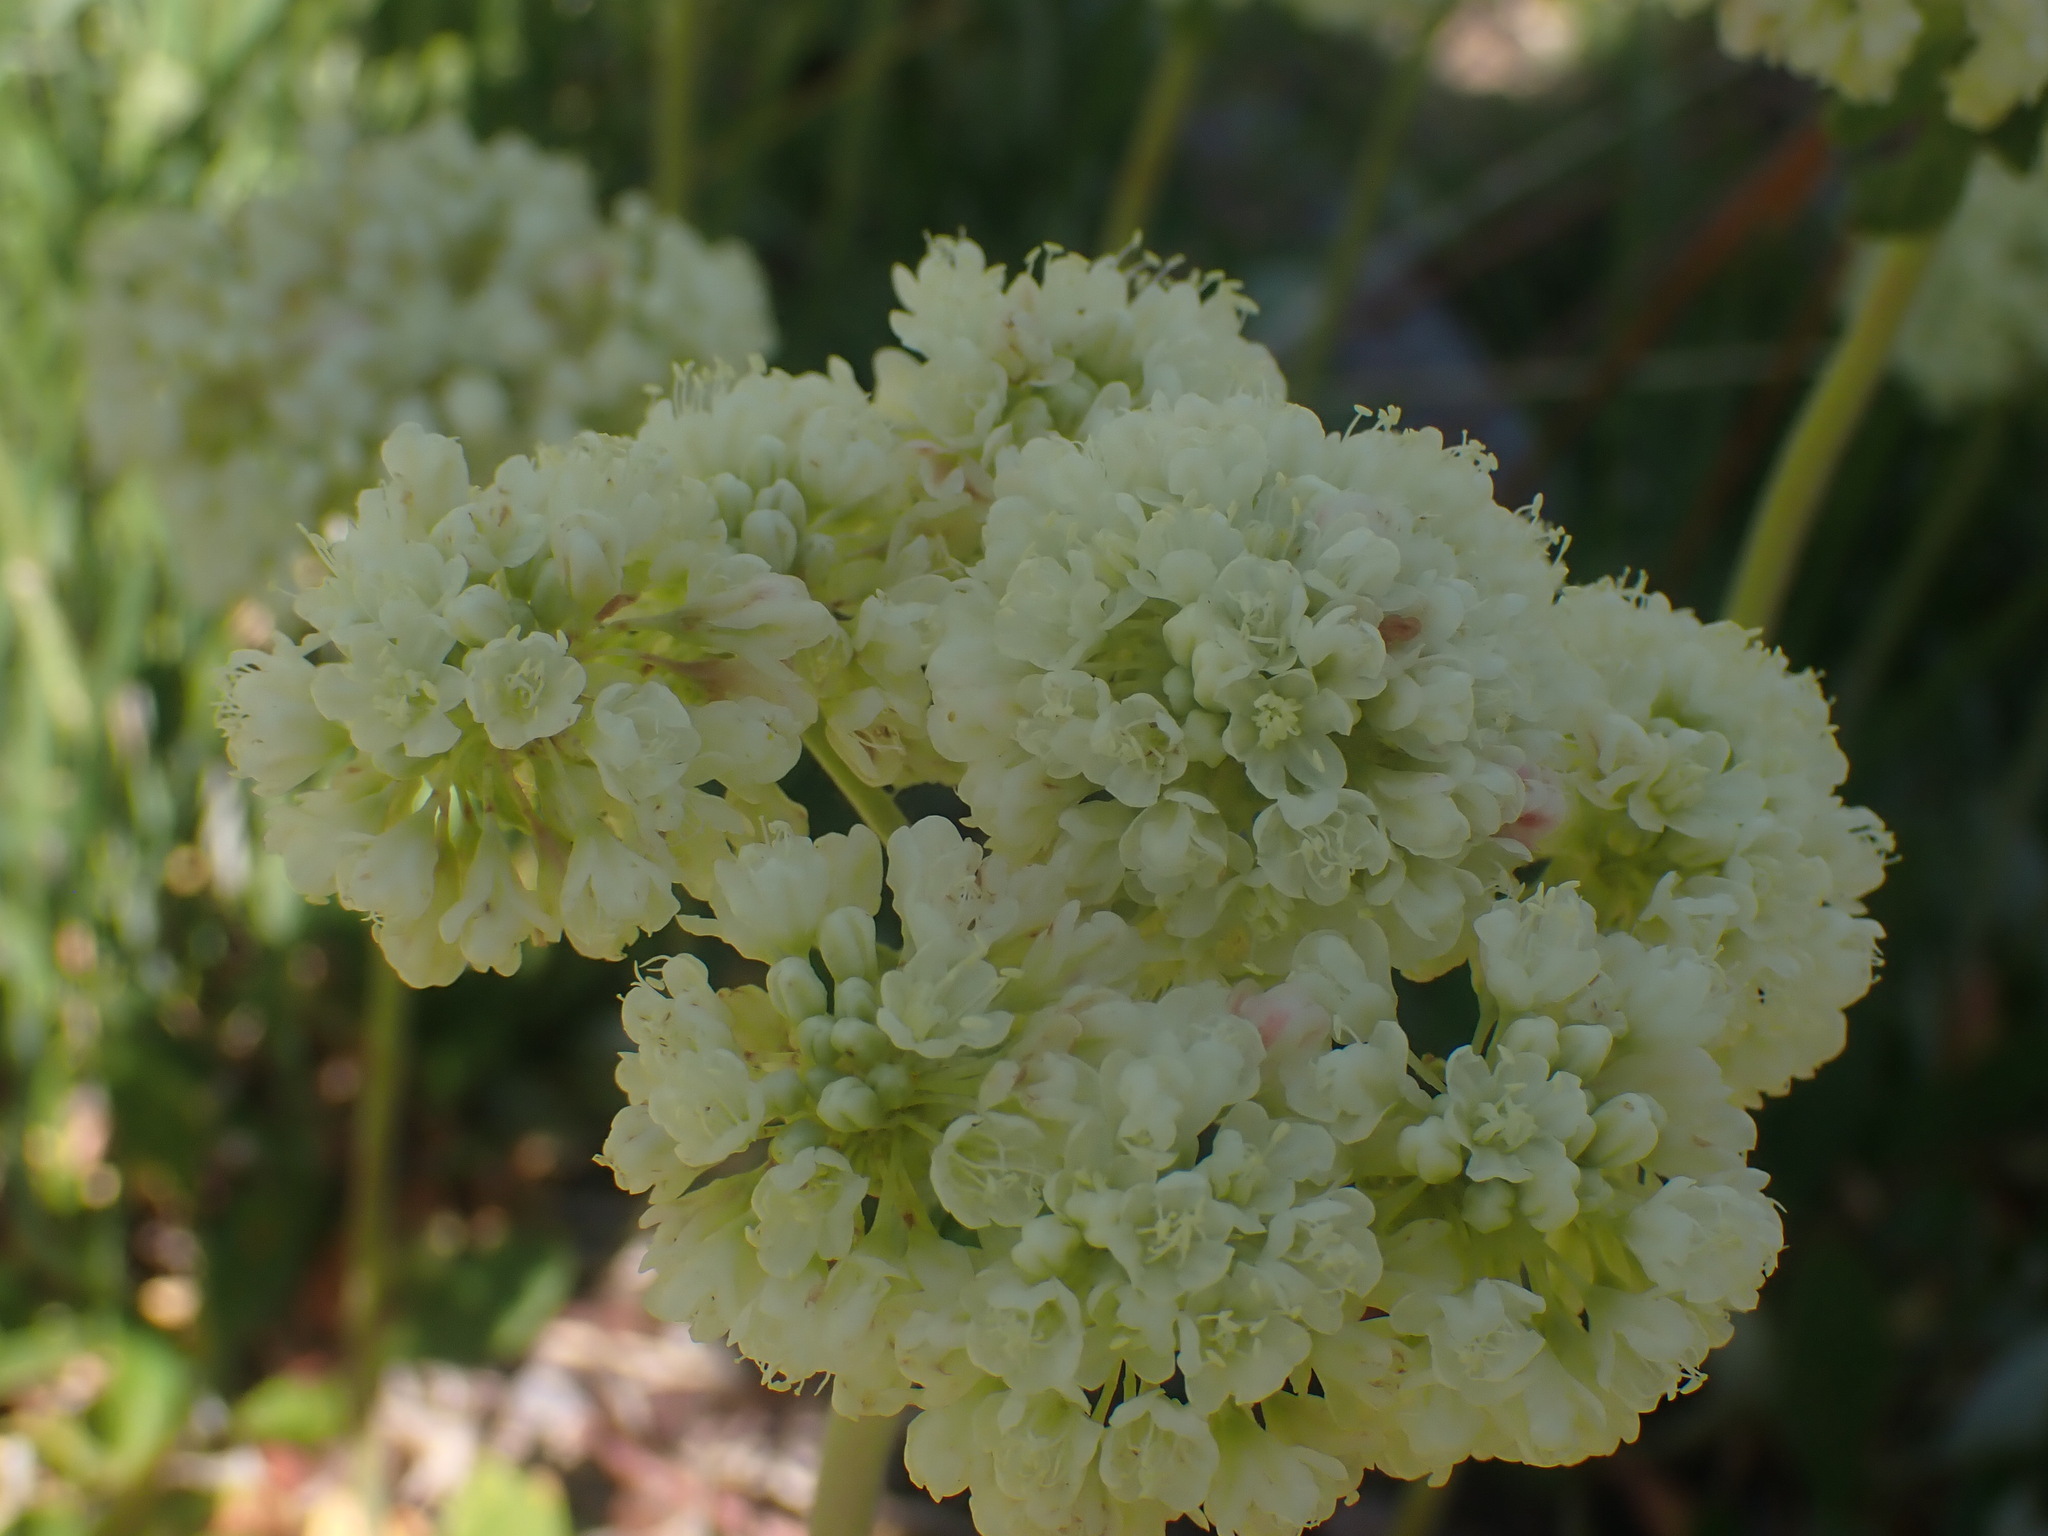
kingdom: Plantae
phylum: Tracheophyta
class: Magnoliopsida
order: Caryophyllales
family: Polygonaceae
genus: Eriogonum
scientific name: Eriogonum umbellatum
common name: Sulfur-buckwheat
